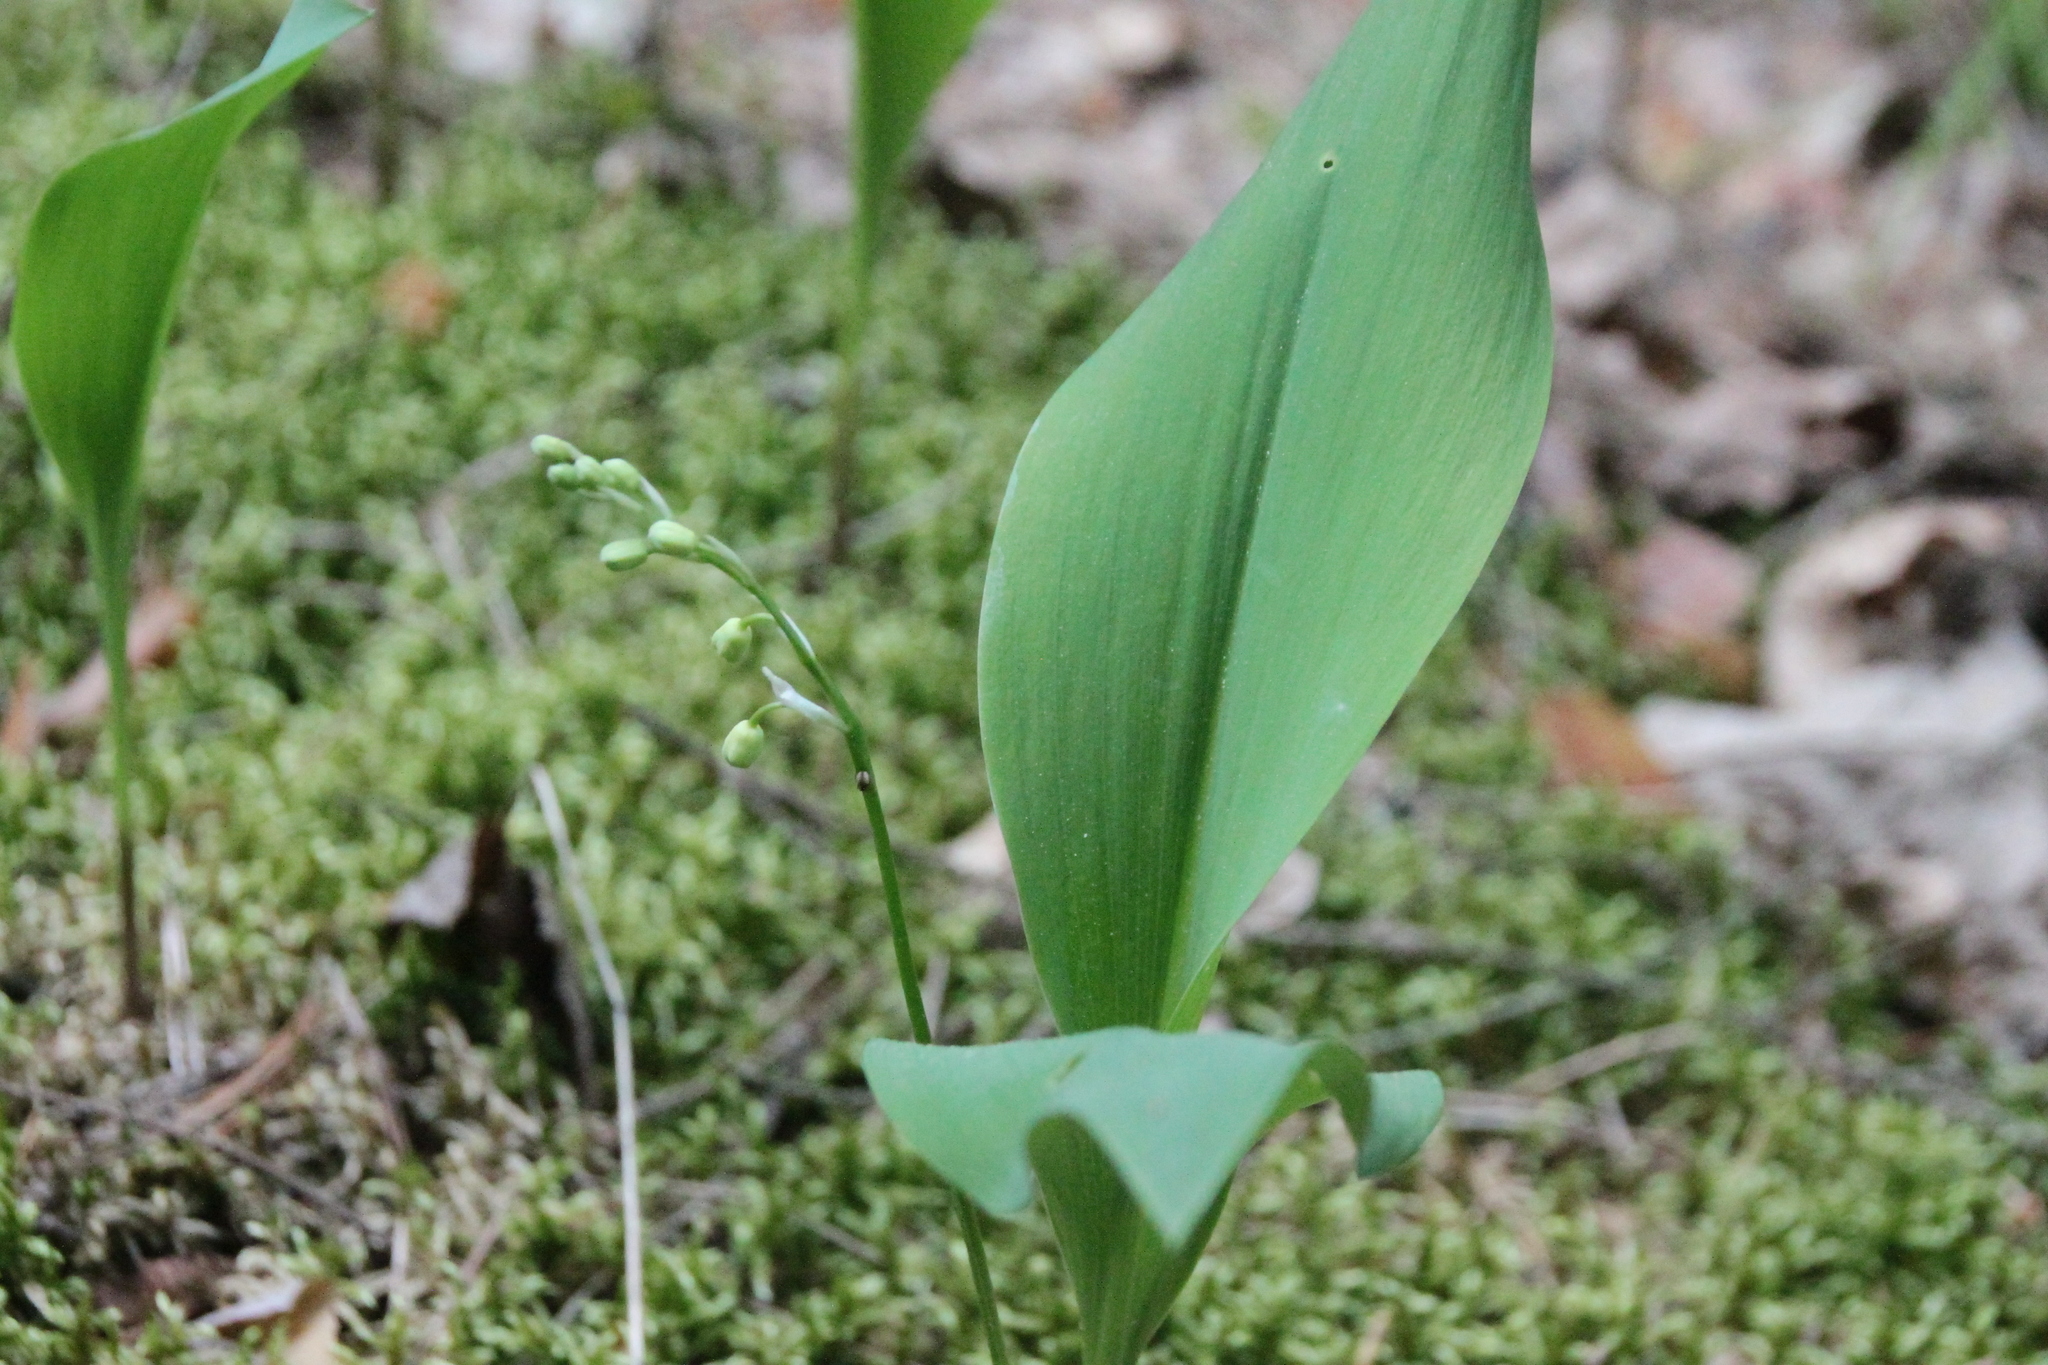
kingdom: Plantae
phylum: Tracheophyta
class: Liliopsida
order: Asparagales
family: Asparagaceae
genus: Convallaria
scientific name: Convallaria majalis
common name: Lily-of-the-valley
